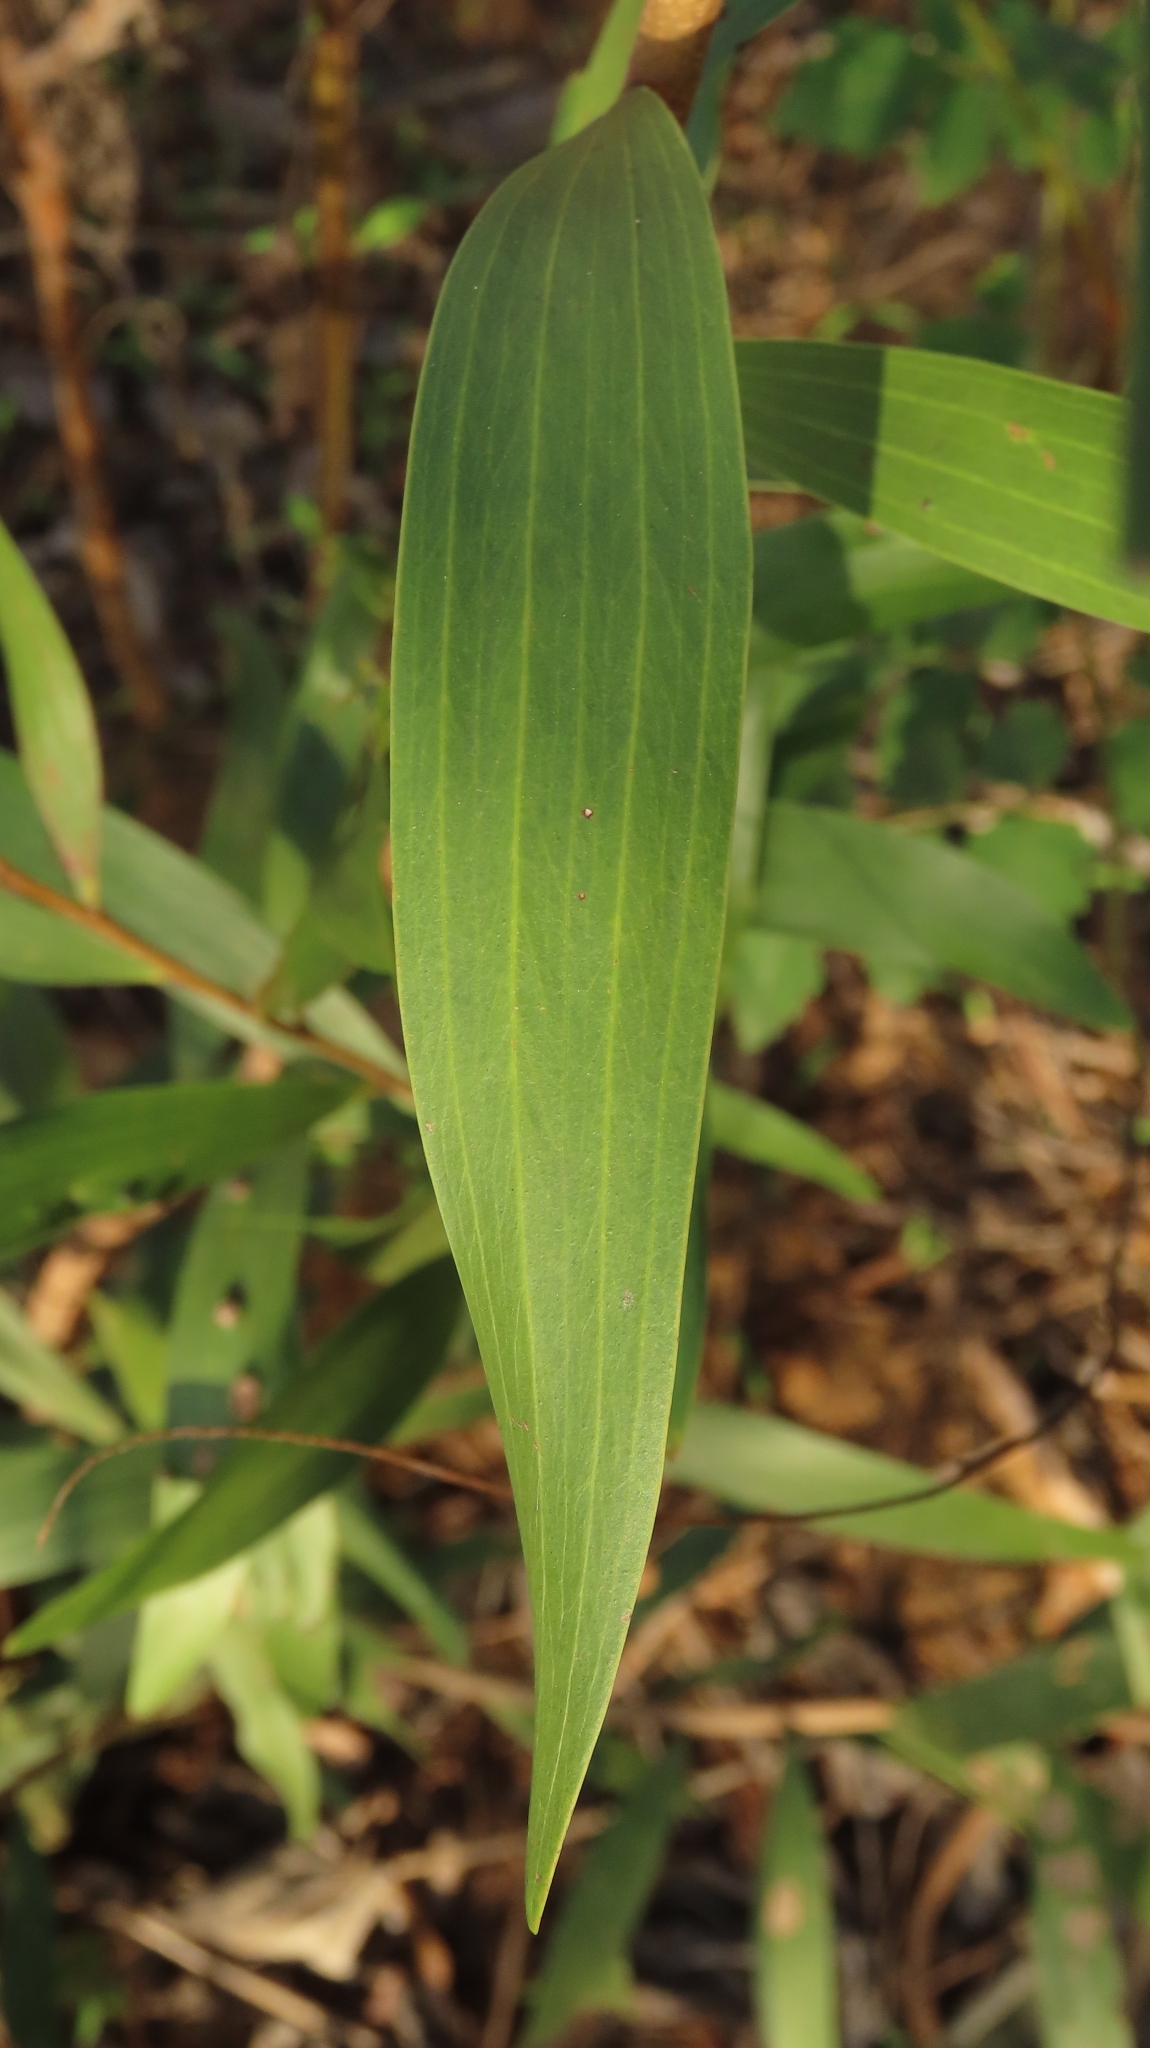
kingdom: Plantae
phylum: Tracheophyta
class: Magnoliopsida
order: Fabales
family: Fabaceae
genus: Acacia
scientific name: Acacia confusa
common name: Formosan koa
